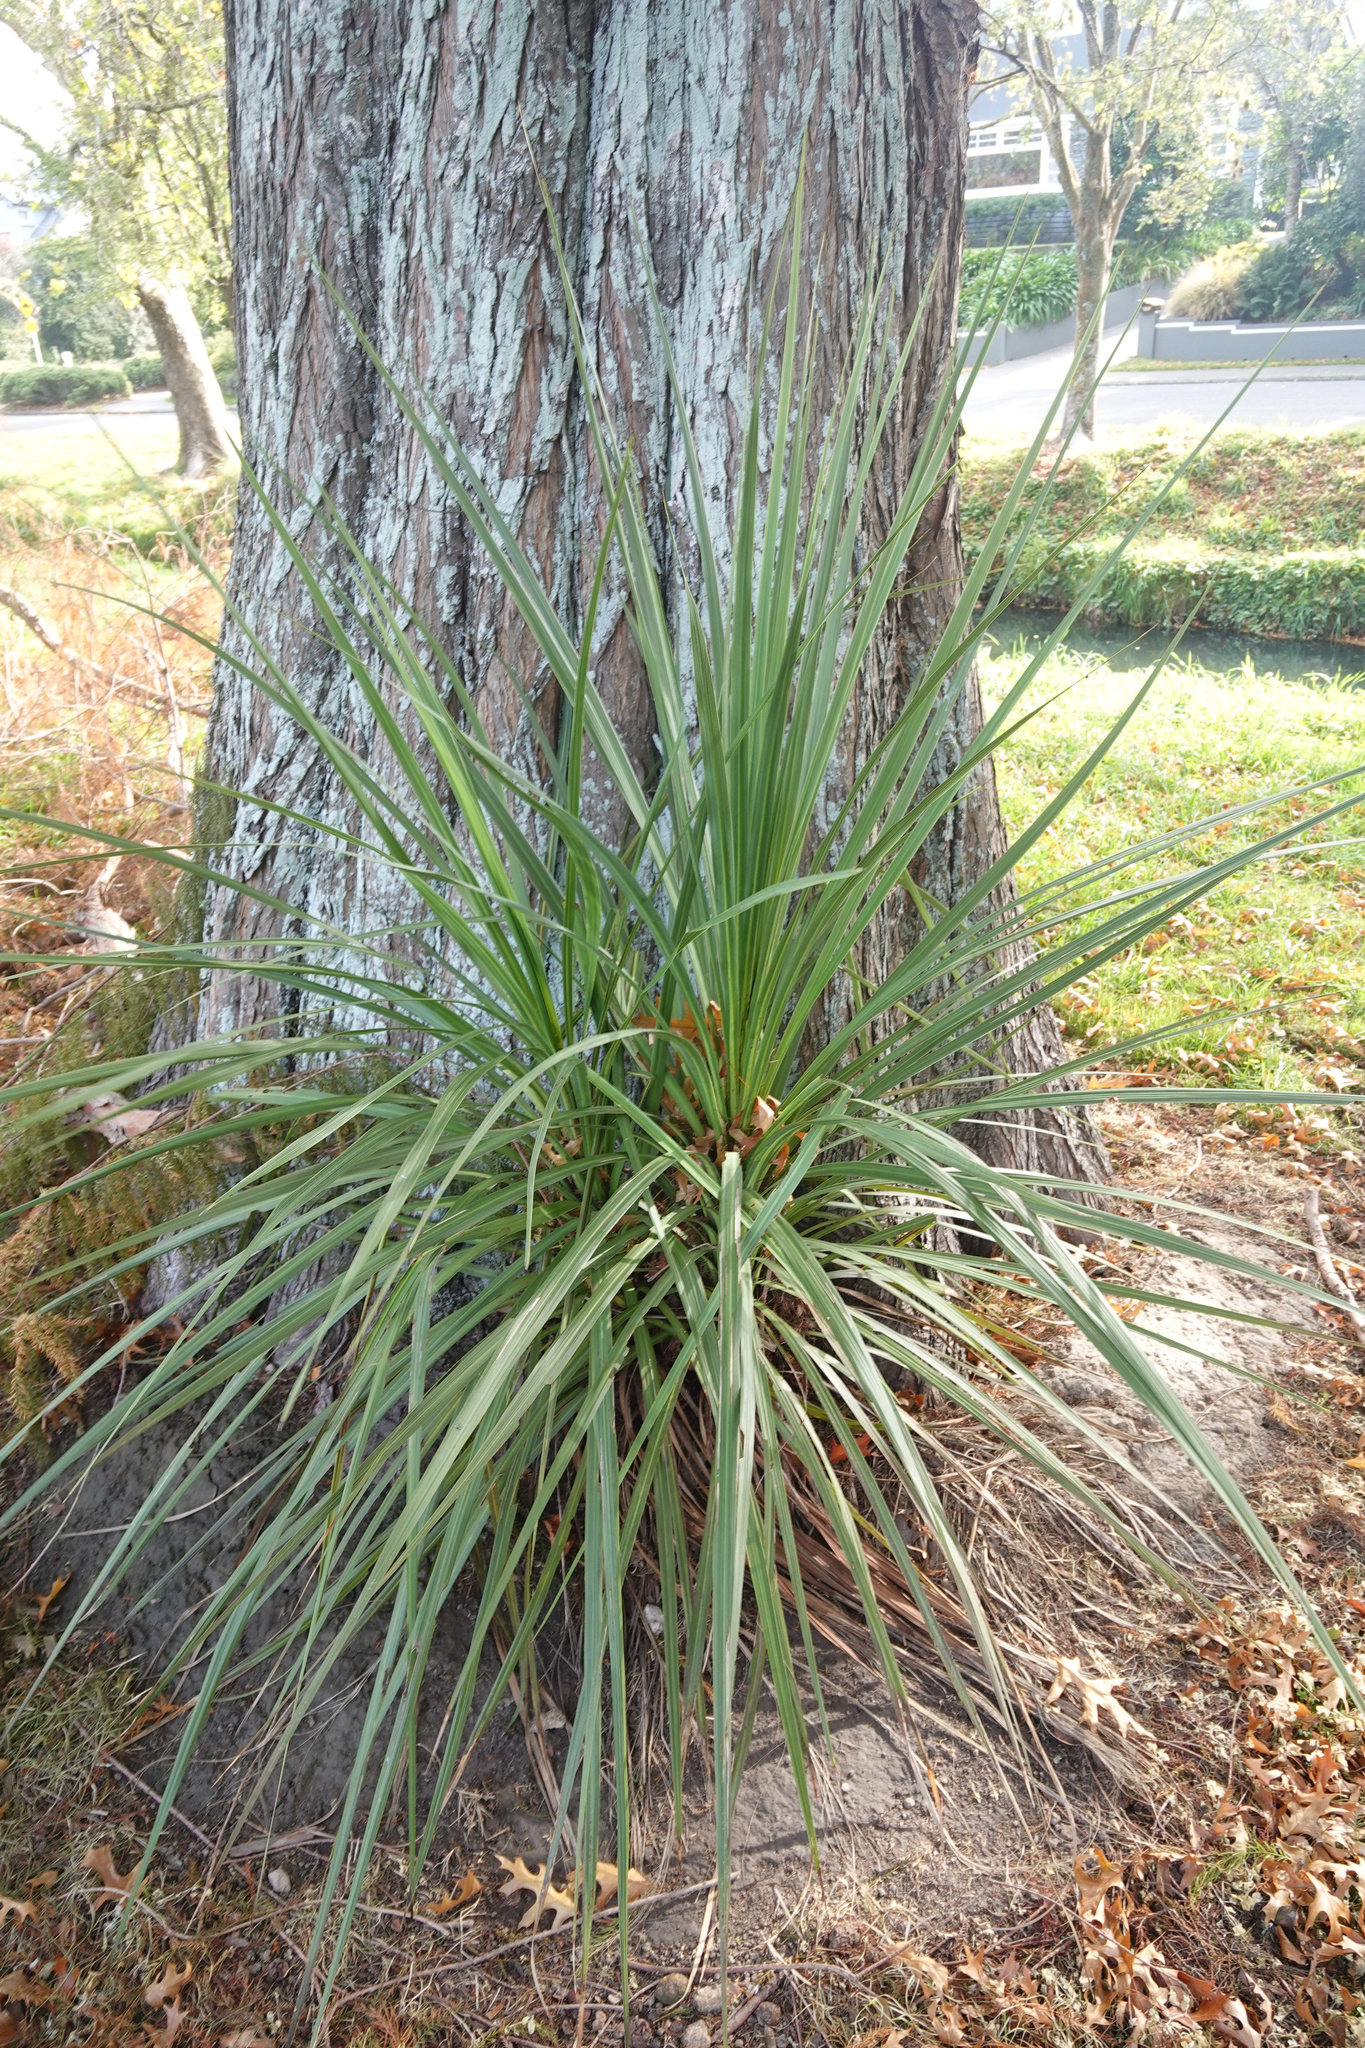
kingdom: Plantae
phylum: Tracheophyta
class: Liliopsida
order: Asparagales
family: Asparagaceae
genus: Cordyline
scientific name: Cordyline australis
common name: Cabbage-palm
